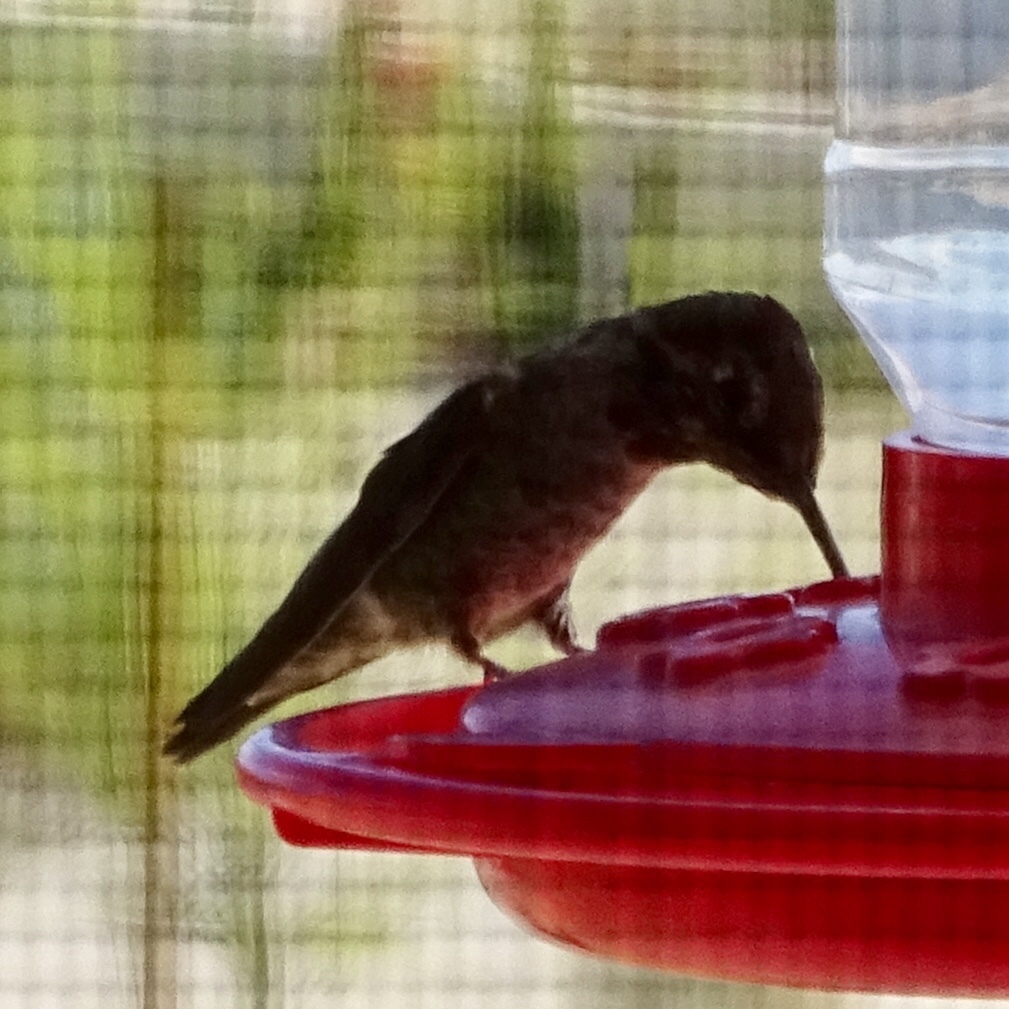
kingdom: Animalia
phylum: Chordata
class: Aves
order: Apodiformes
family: Trochilidae
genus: Calypte
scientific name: Calypte anna
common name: Anna's hummingbird
